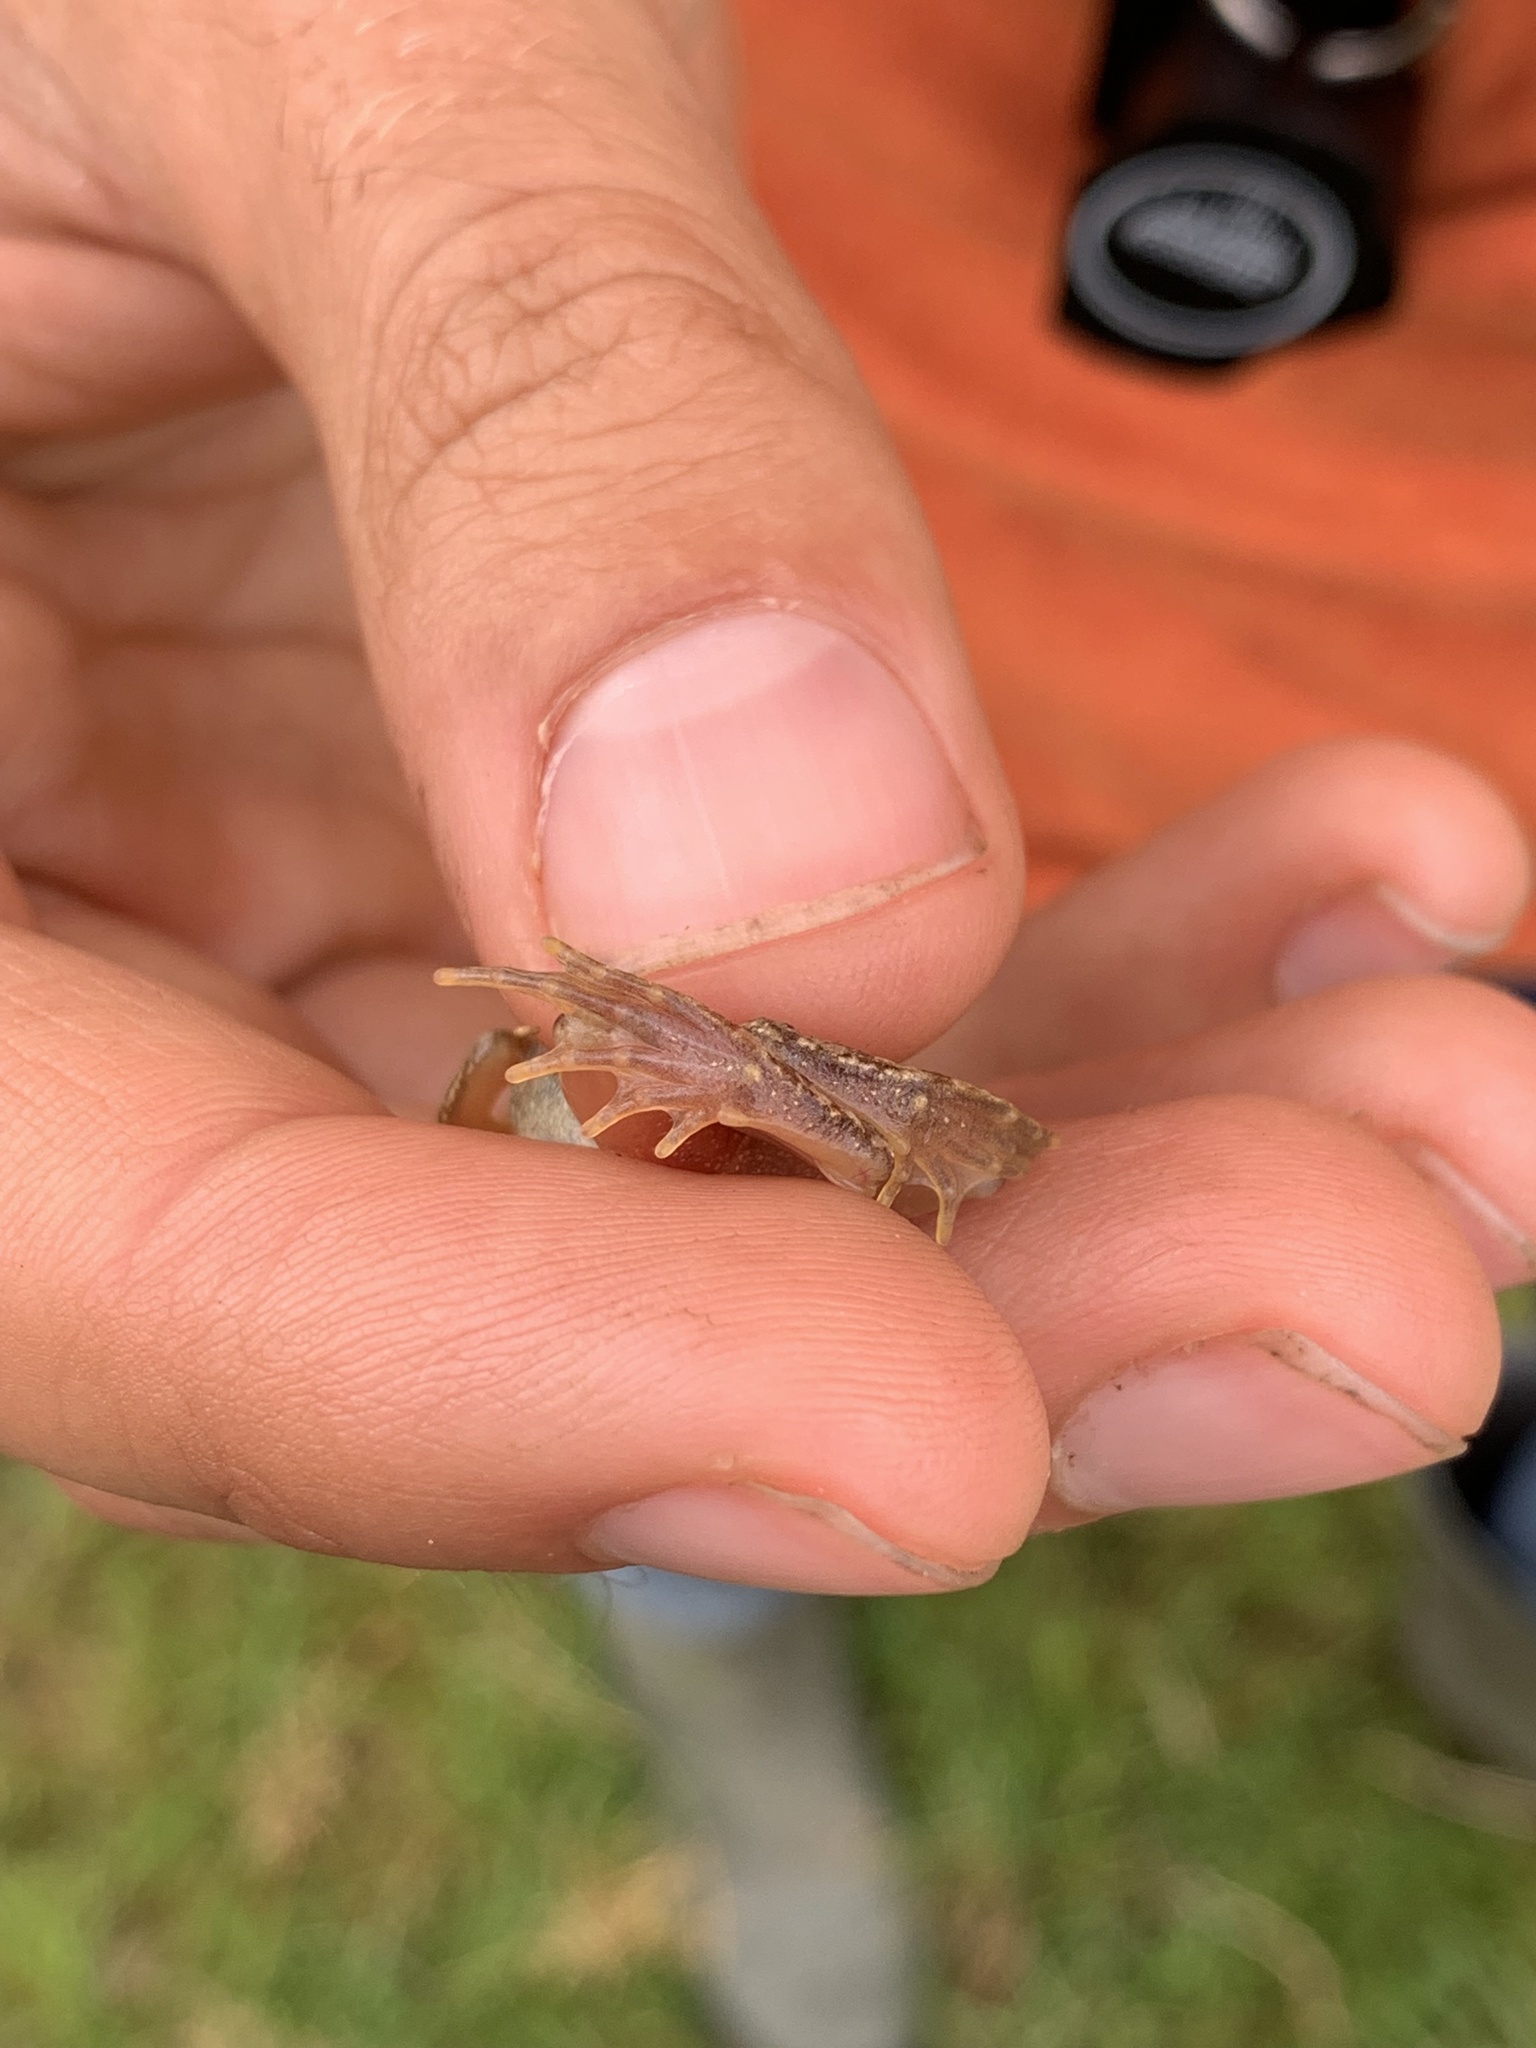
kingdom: Animalia
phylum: Chordata
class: Amphibia
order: Anura
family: Ranidae
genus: Rana
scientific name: Rana temporaria
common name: Common frog
